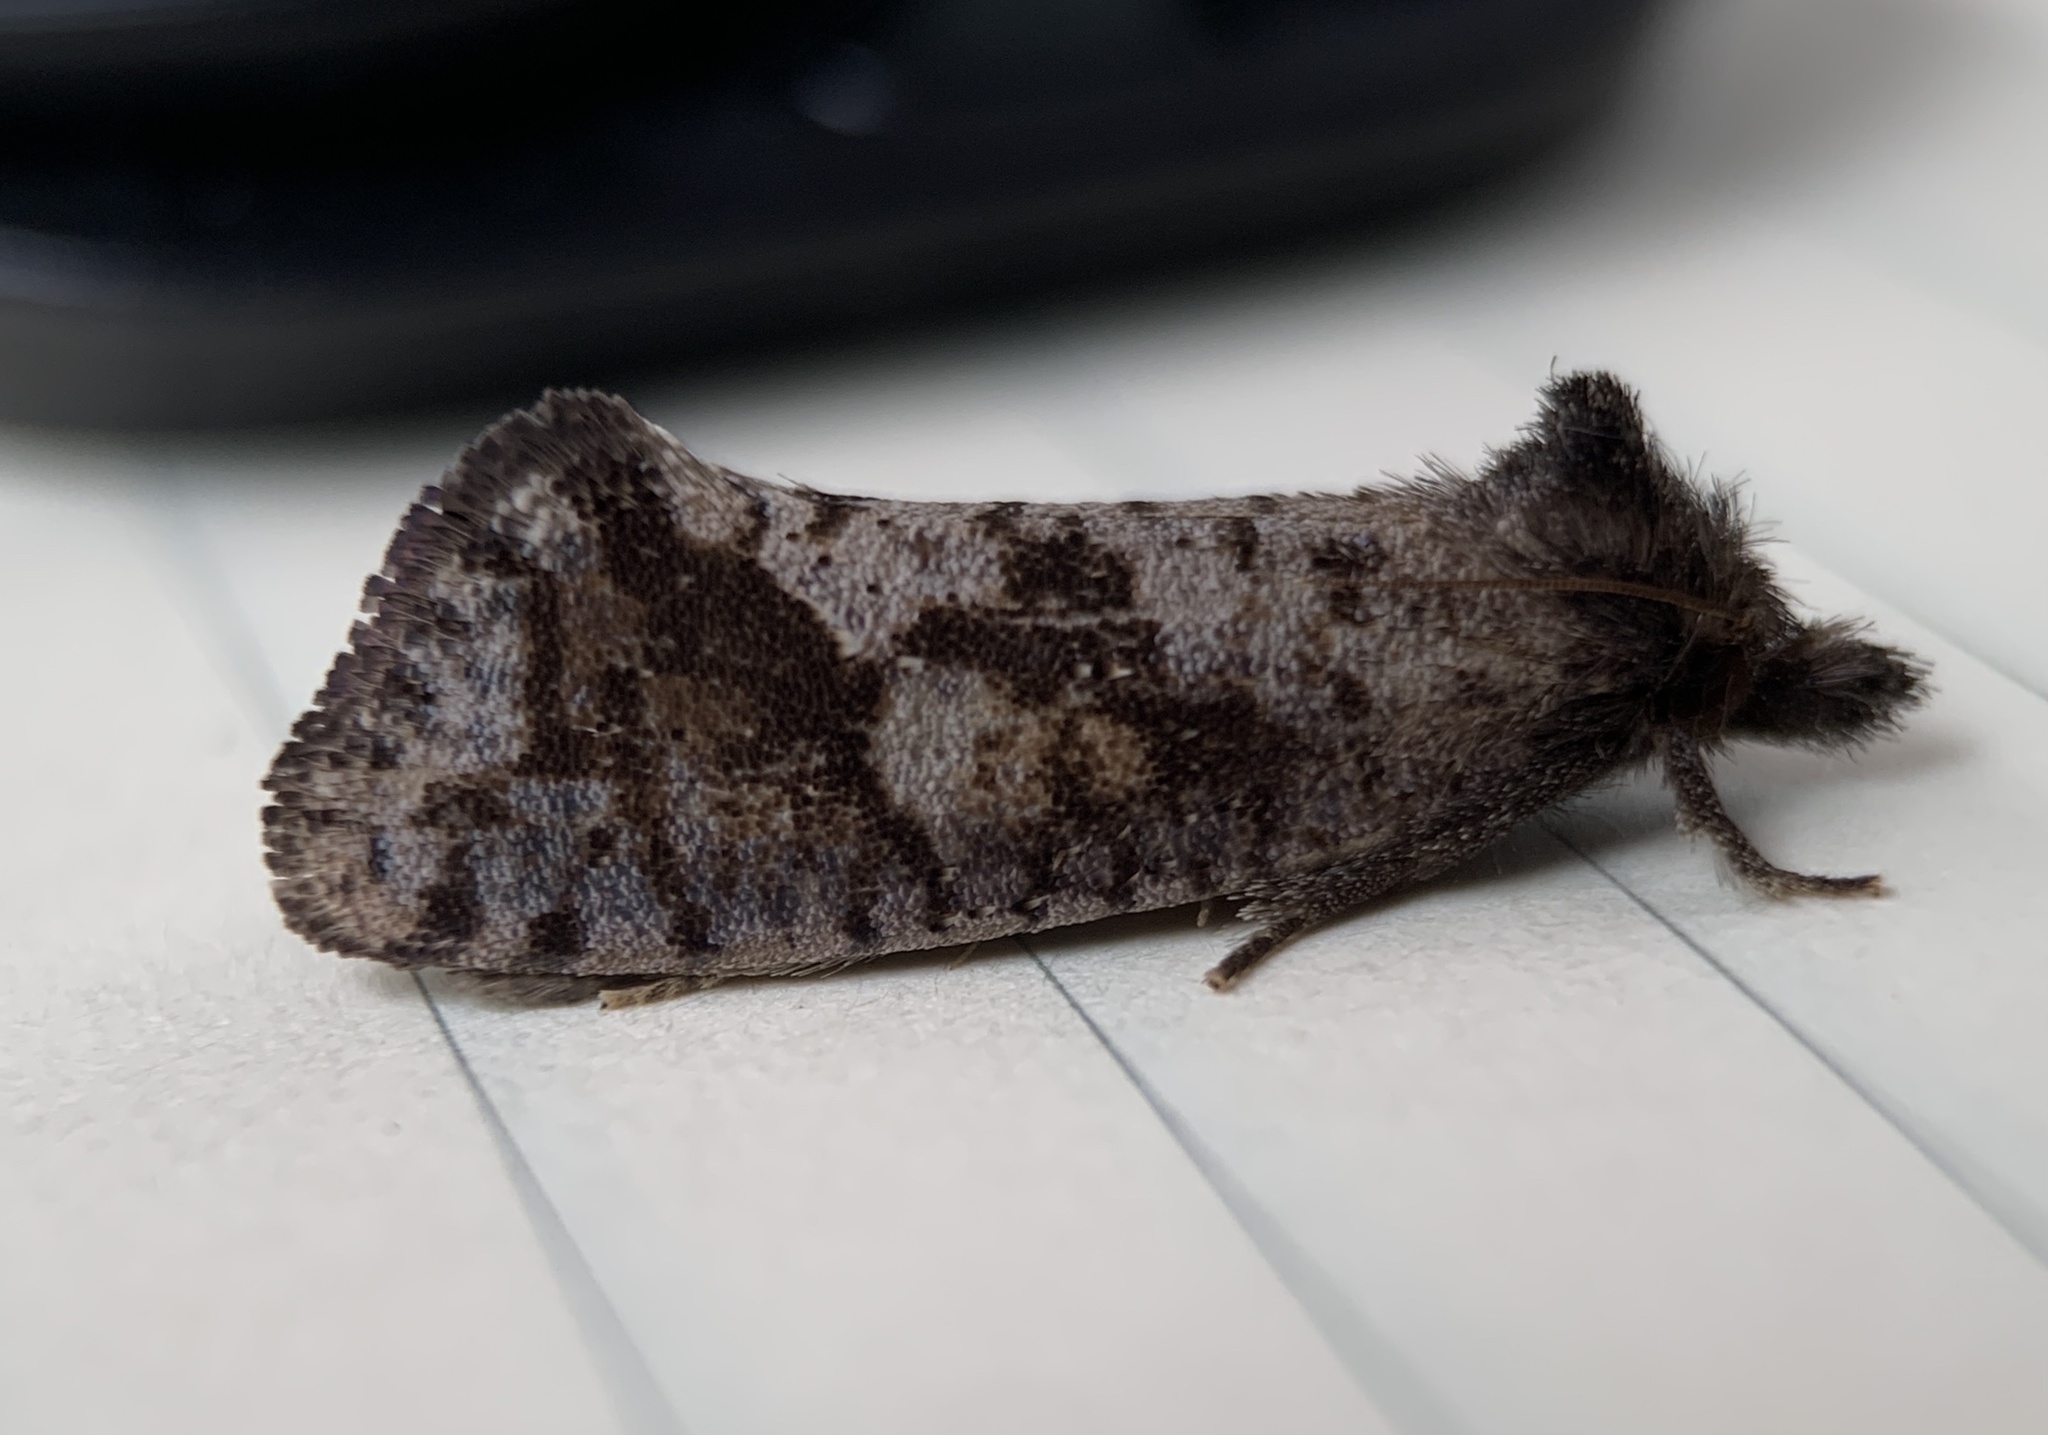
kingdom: Animalia
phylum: Arthropoda
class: Insecta
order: Lepidoptera
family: Tineidae
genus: Acrolophus
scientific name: Acrolophus texanella
